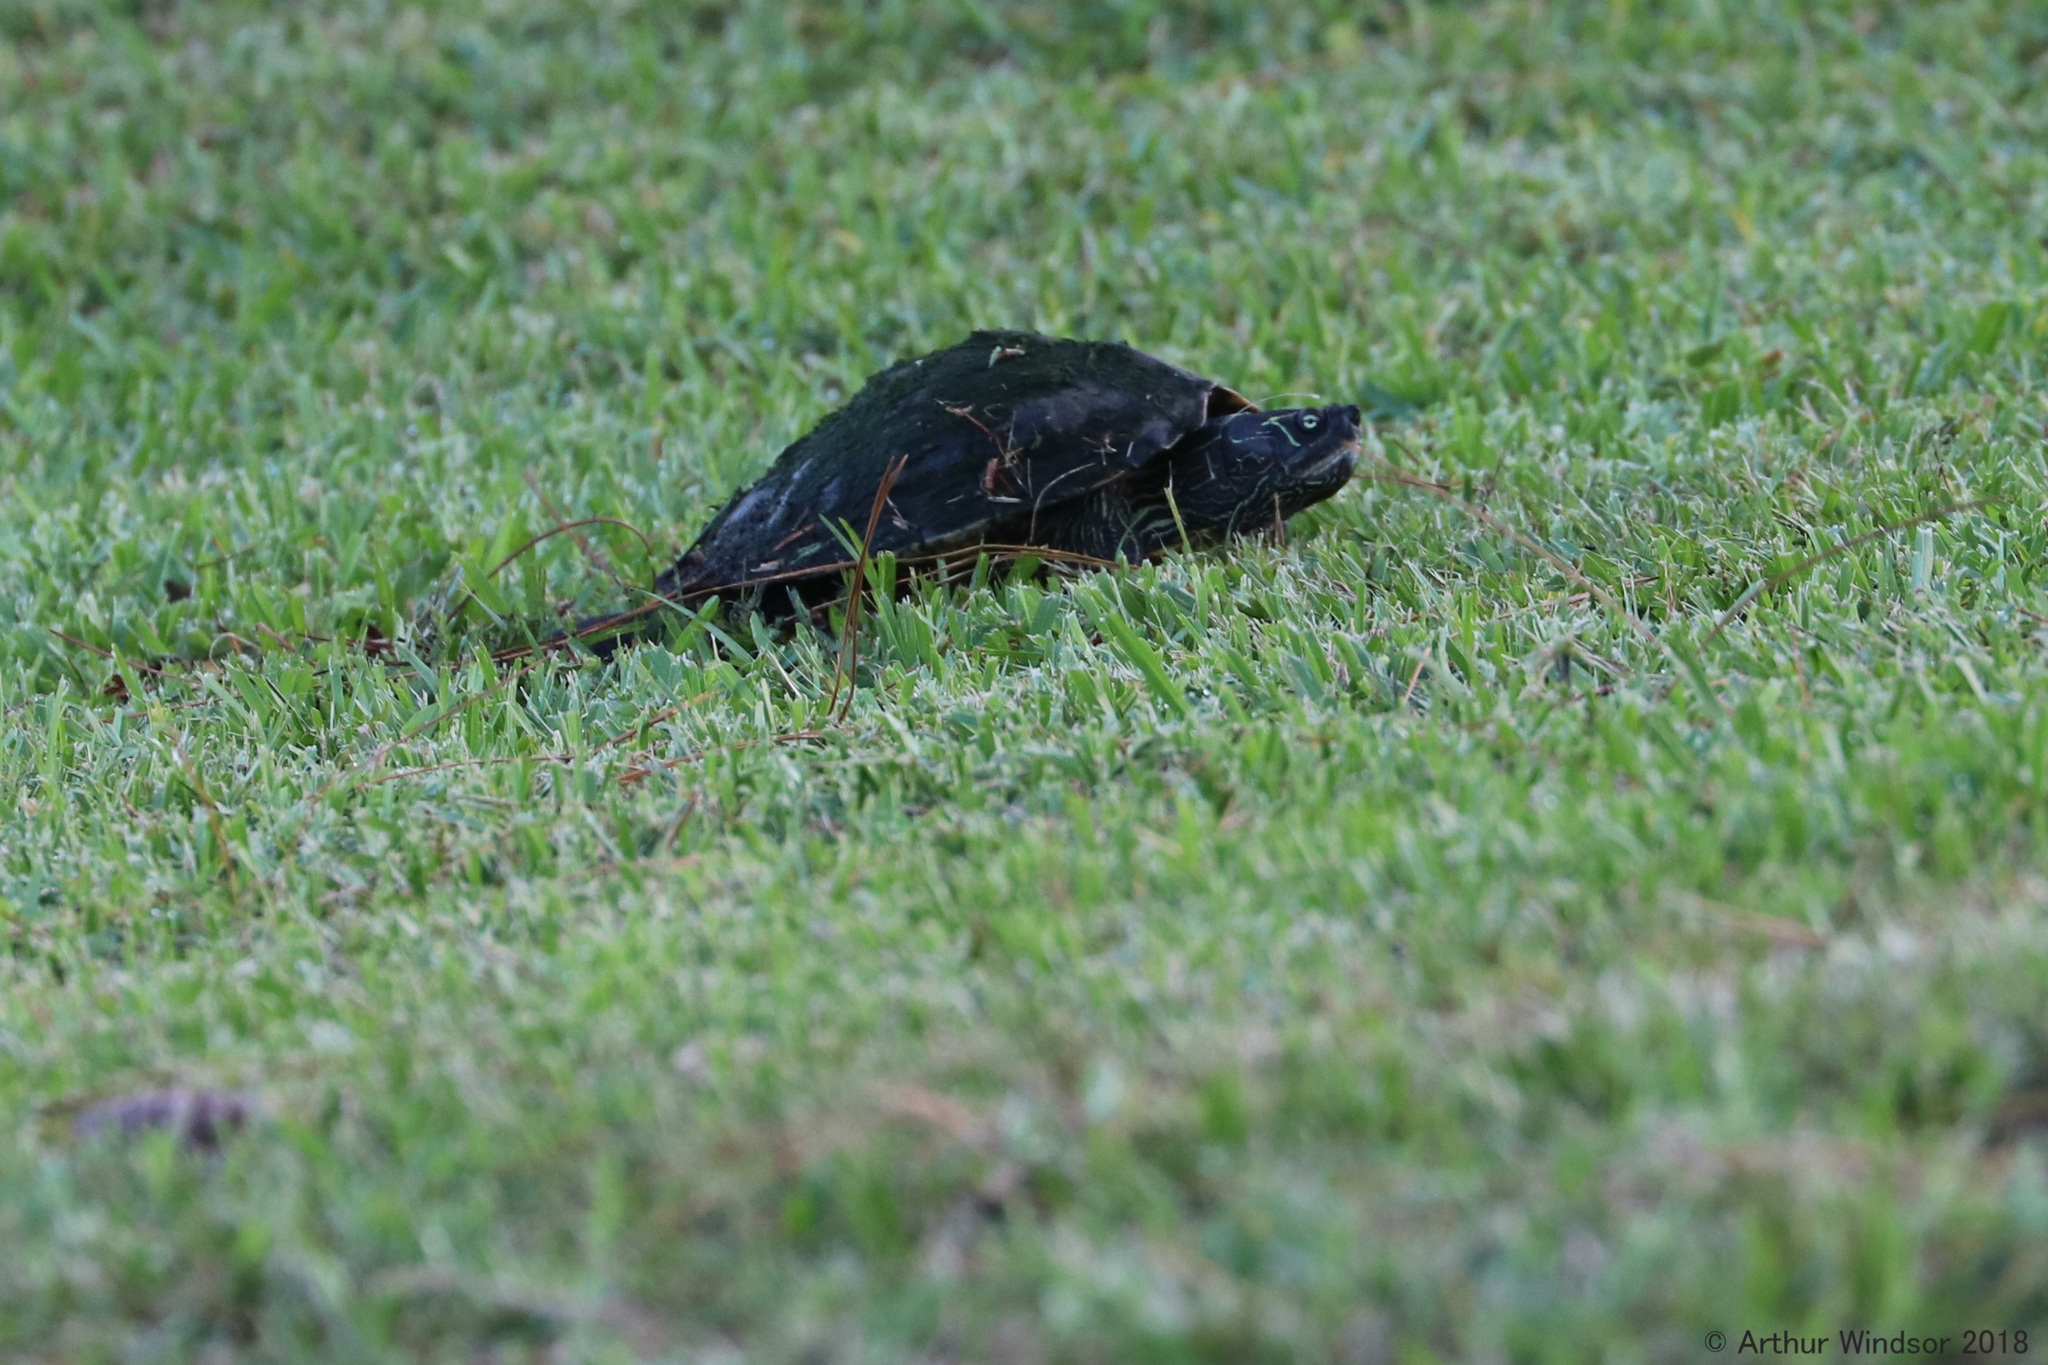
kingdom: Animalia
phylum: Chordata
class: Testudines
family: Emydidae
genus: Graptemys
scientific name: Graptemys pseudogeographica
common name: False map turtle
